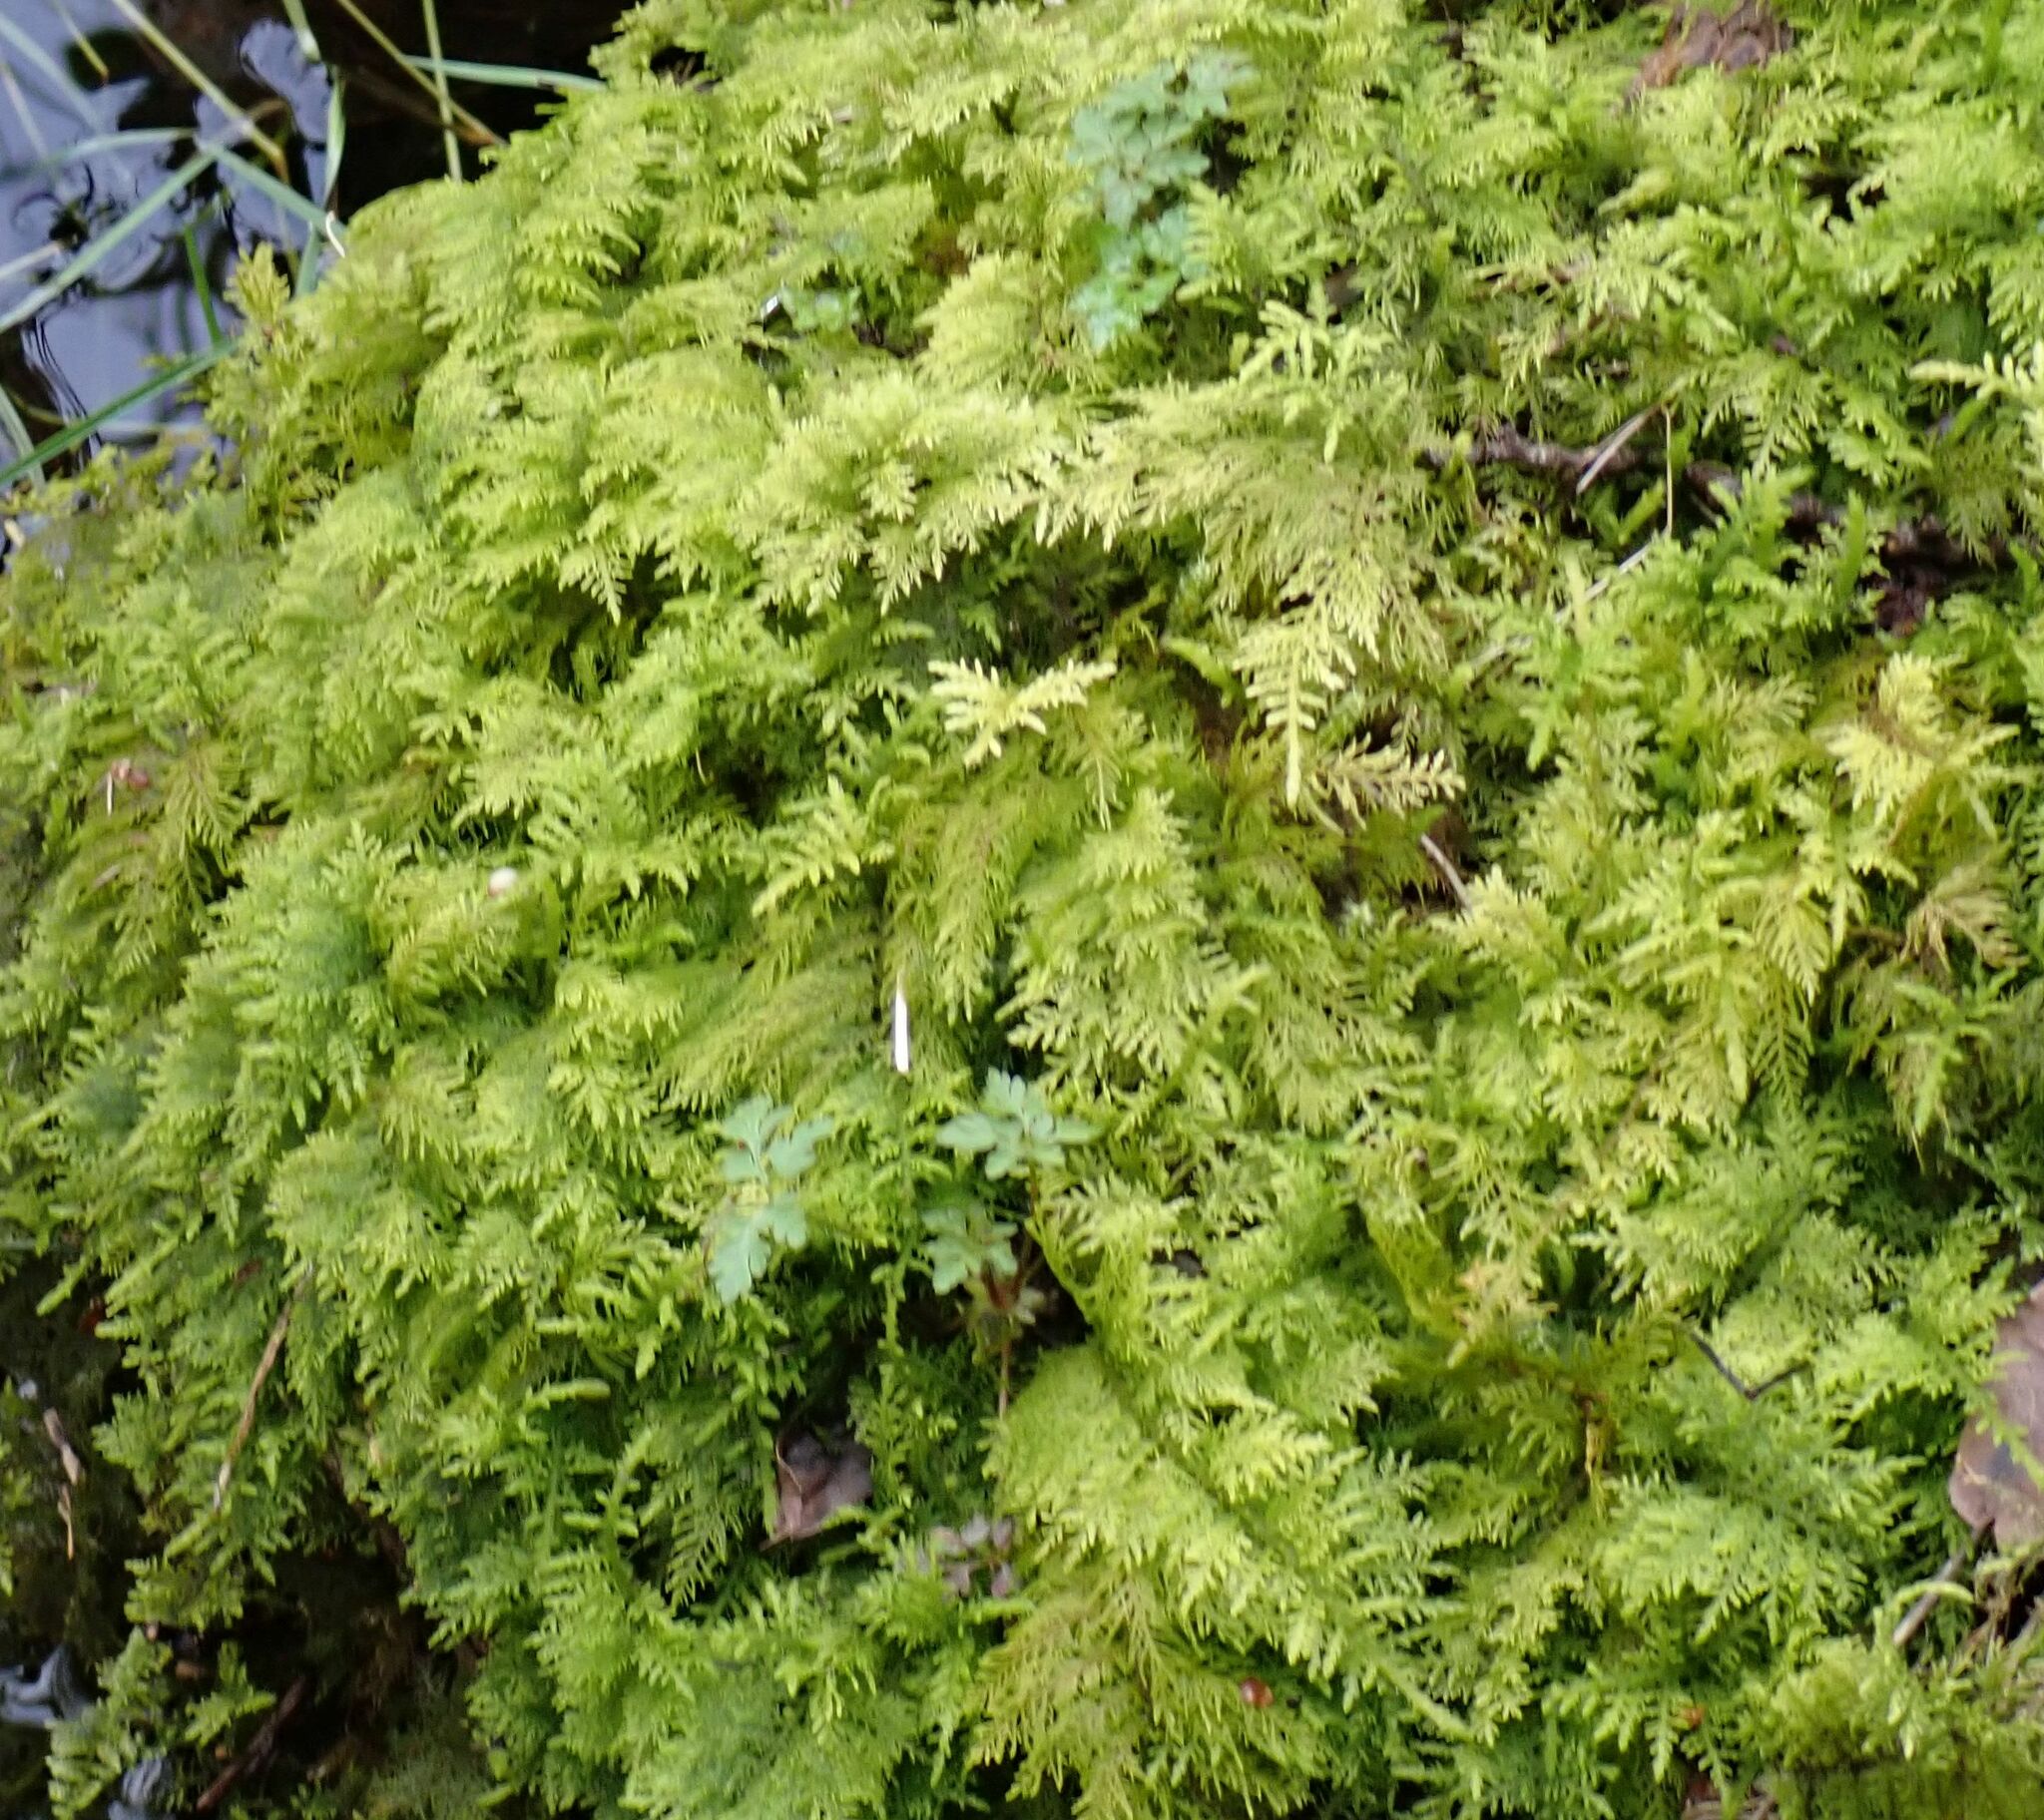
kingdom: Plantae
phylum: Bryophyta
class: Bryopsida
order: Hypnales
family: Thuidiaceae
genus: Thuidium
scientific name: Thuidium tamariscinum
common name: Common tamarisk-moss
